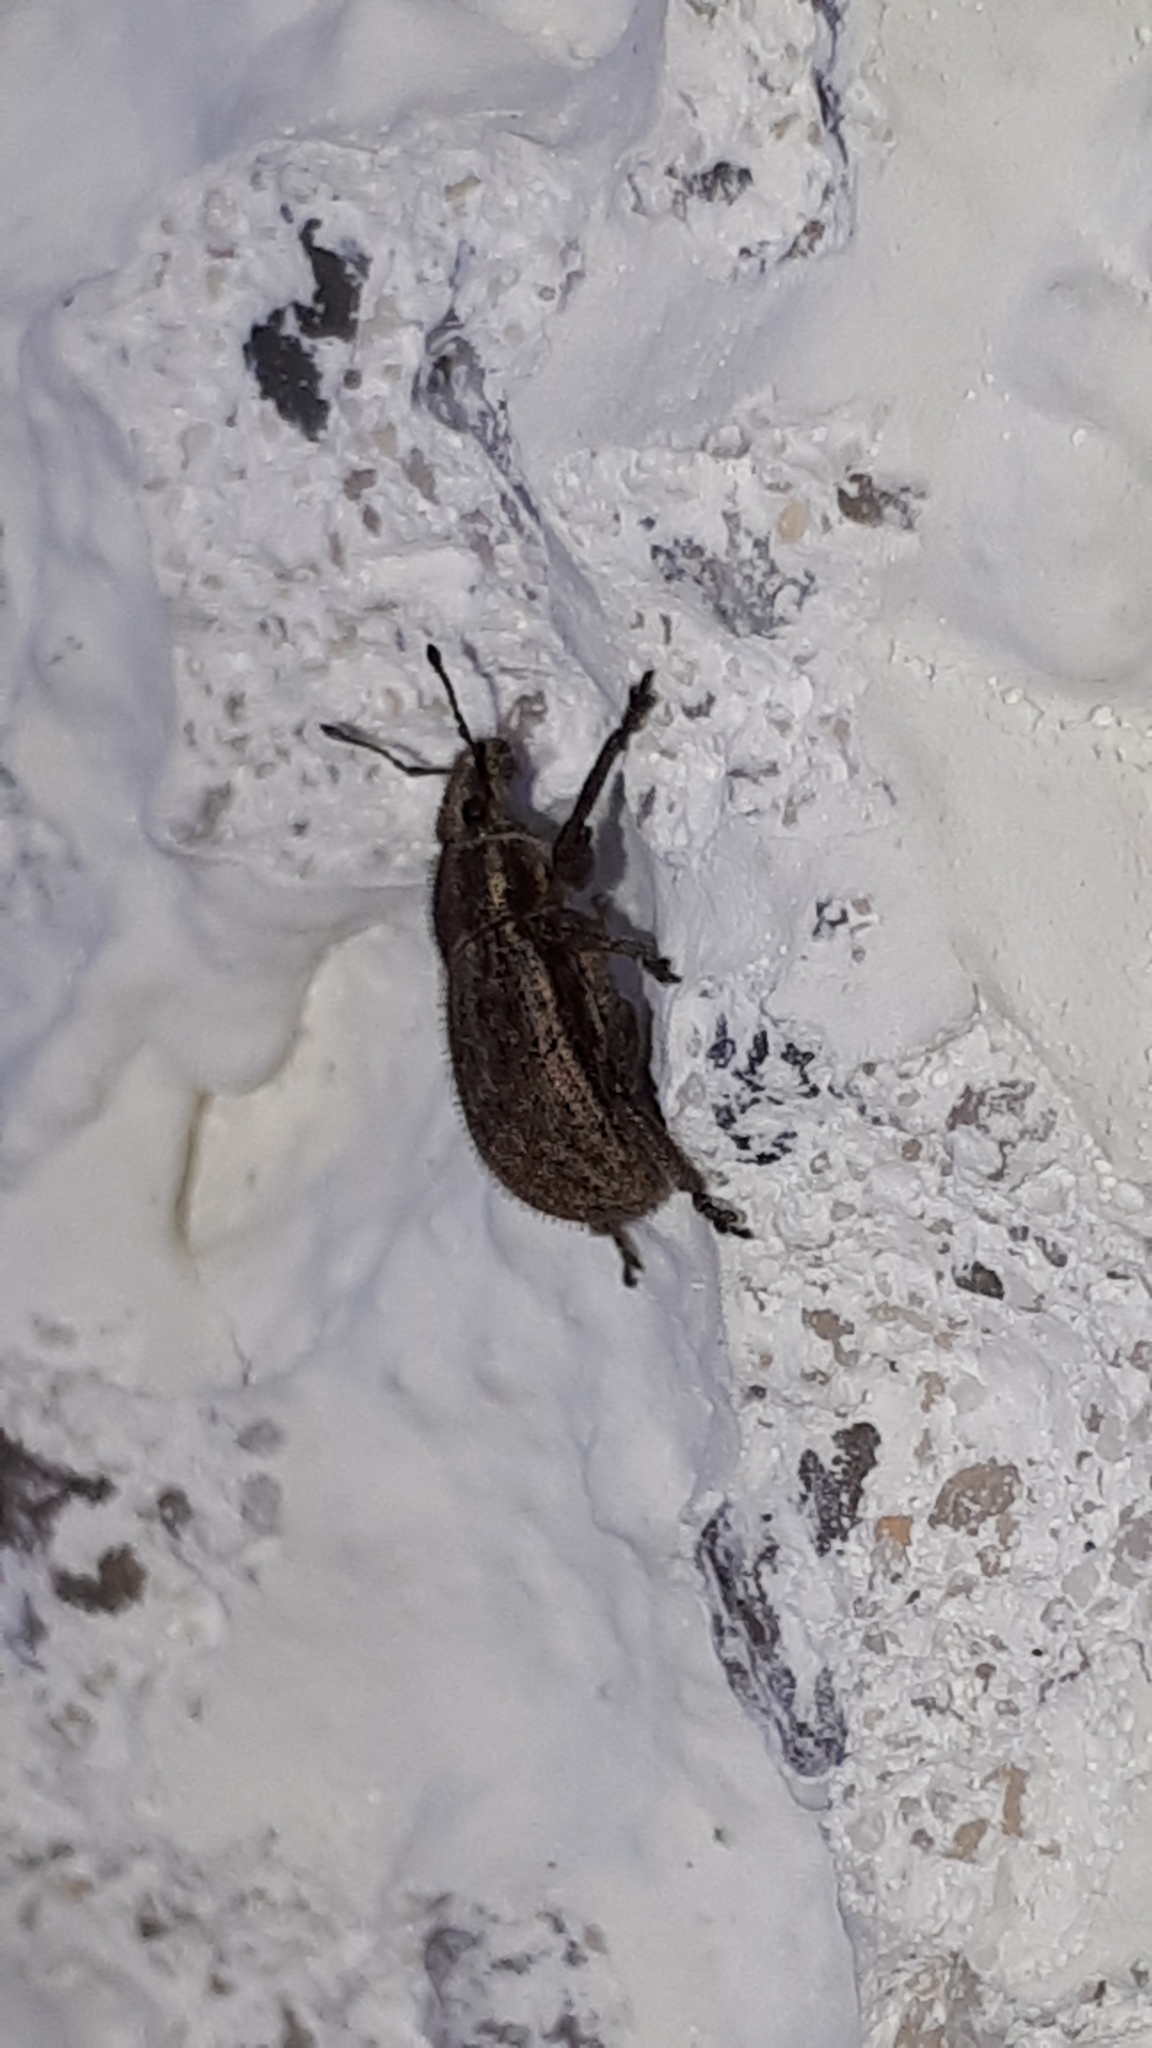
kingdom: Animalia
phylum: Arthropoda
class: Insecta
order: Coleoptera
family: Curculionidae
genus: Strophosoma
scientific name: Strophosoma faber
